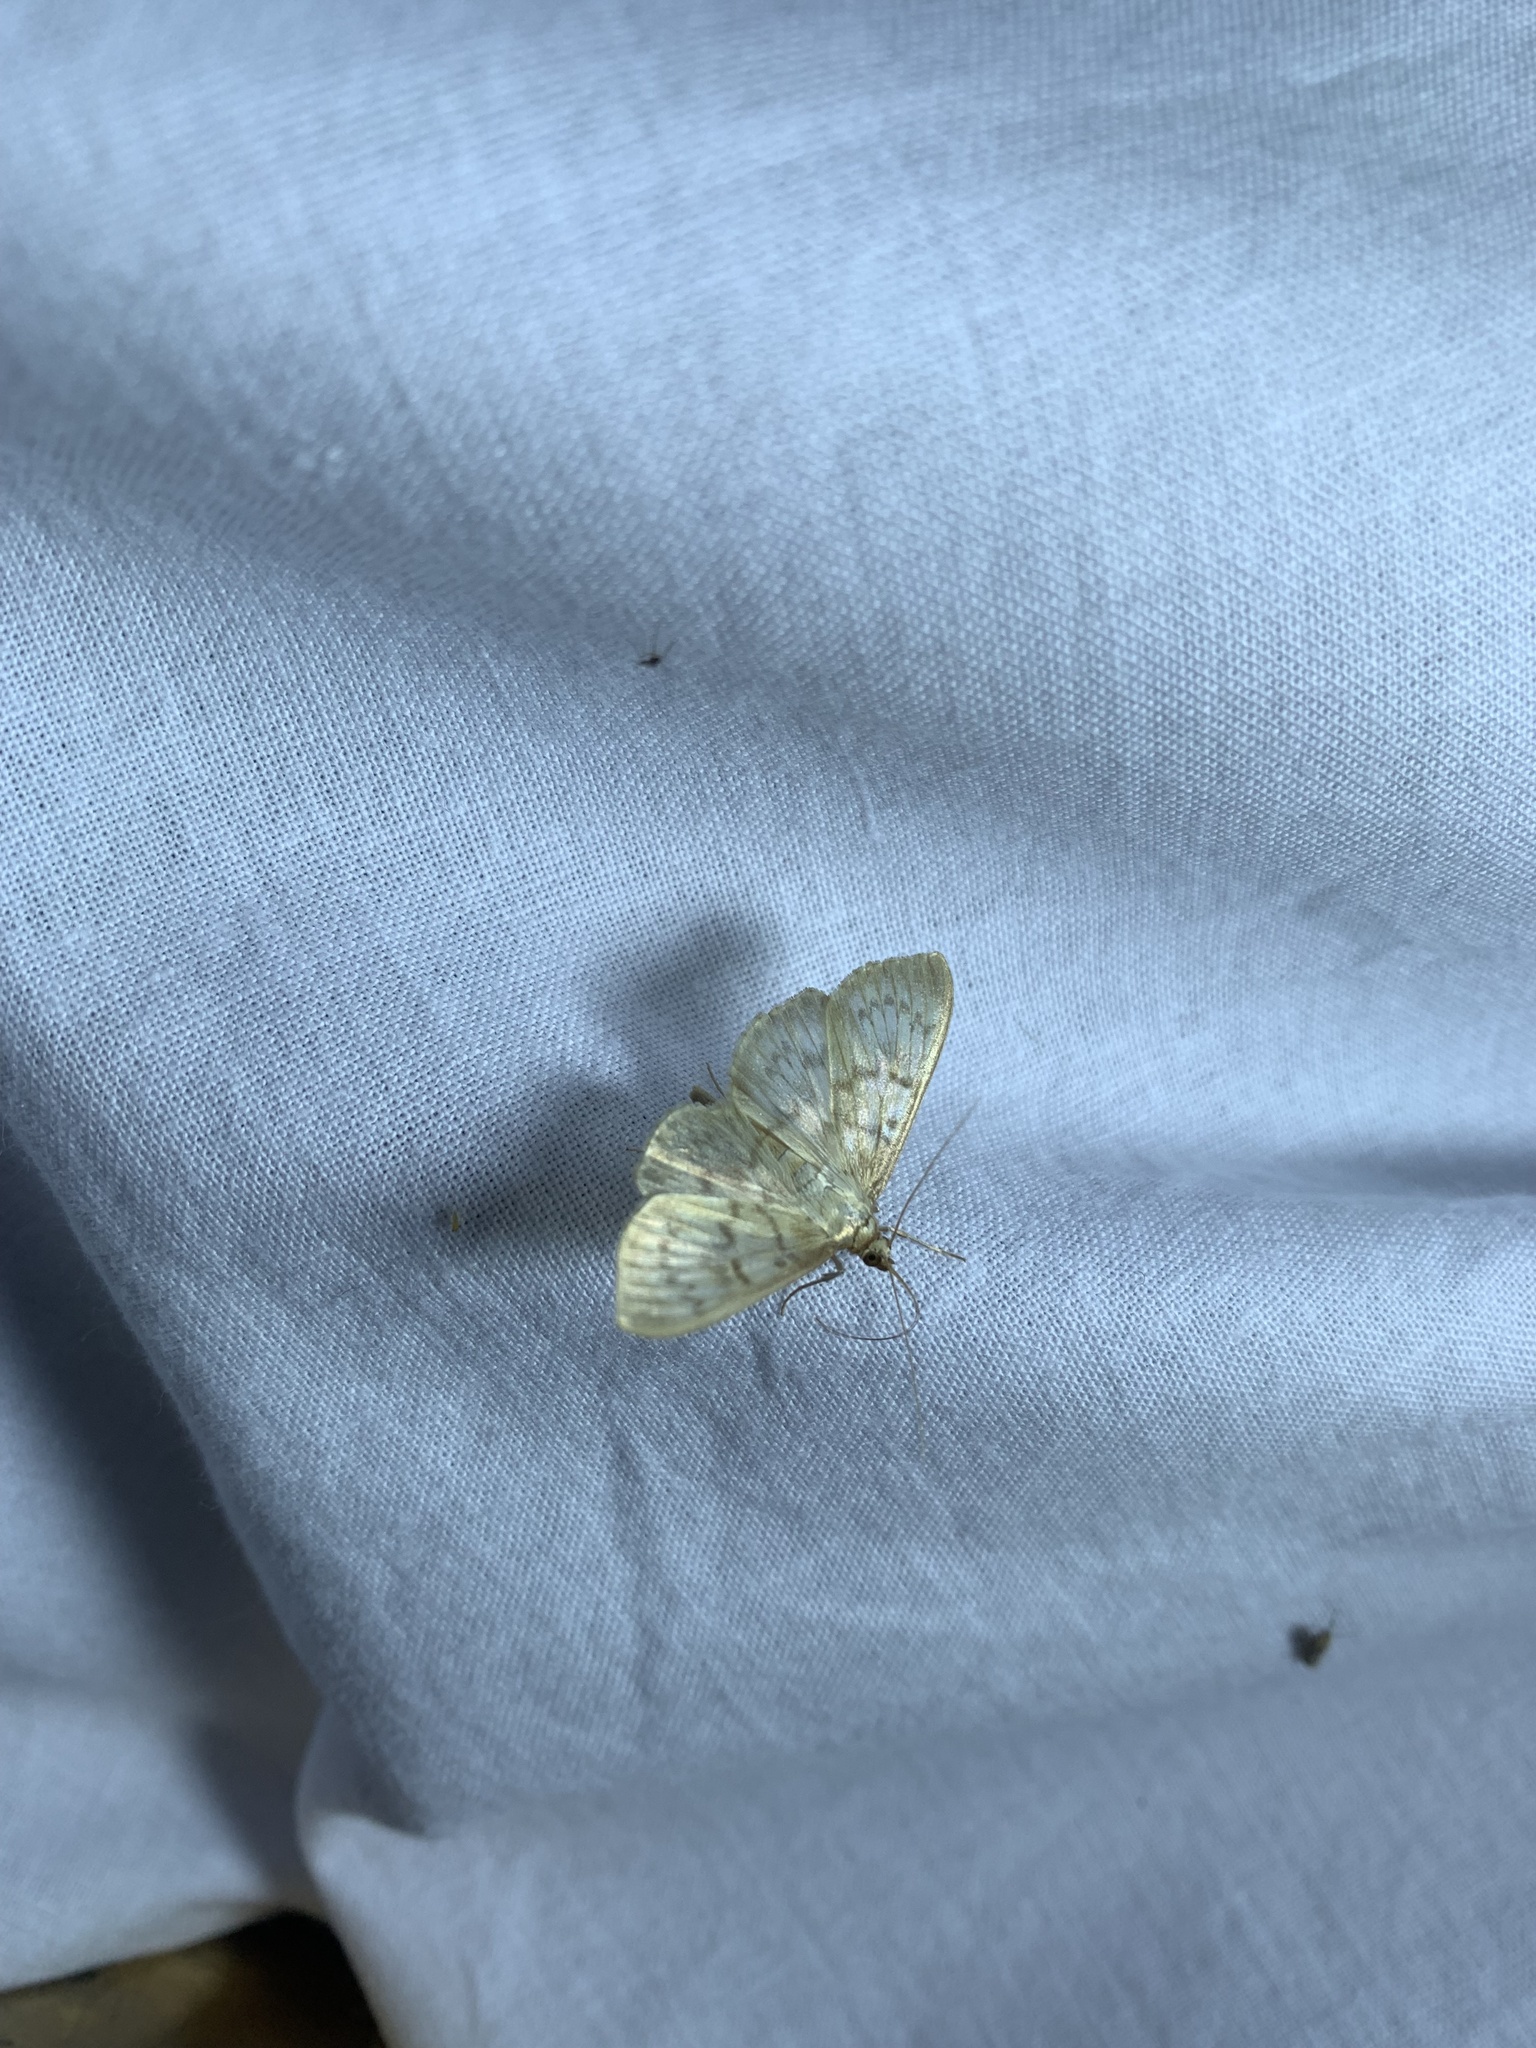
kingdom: Animalia
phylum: Arthropoda
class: Insecta
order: Lepidoptera
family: Crambidae
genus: Patania
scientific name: Patania ruralis
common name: Mother of pearl
